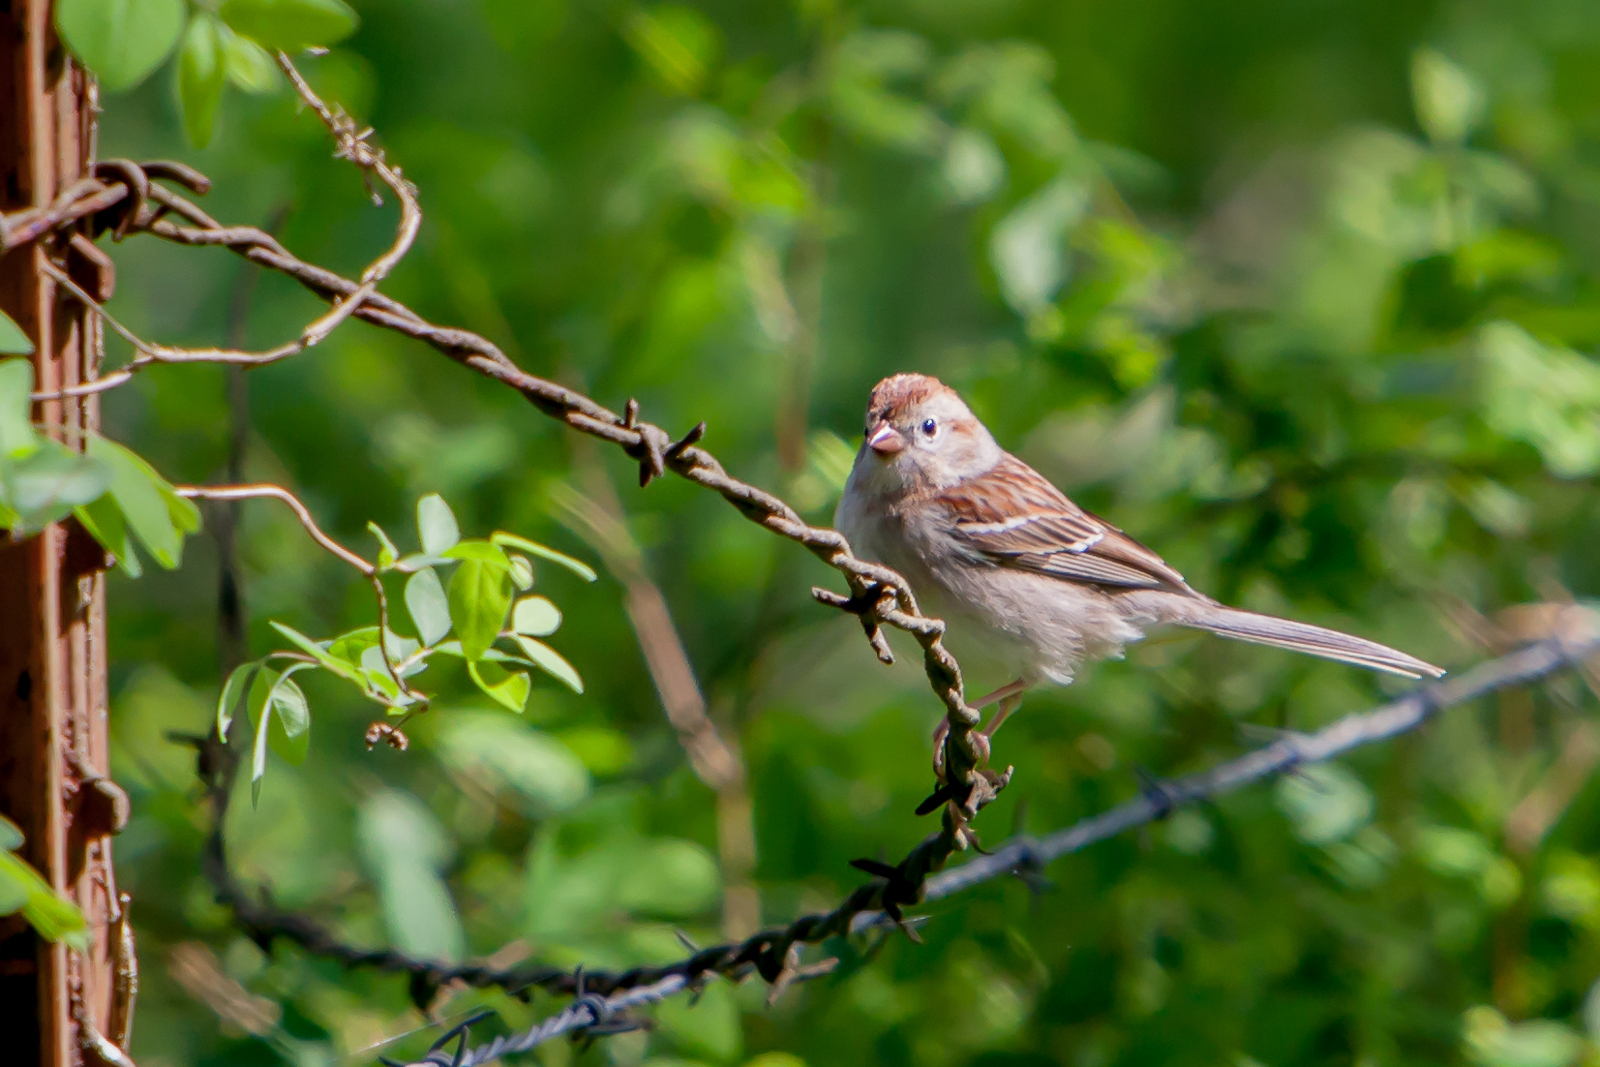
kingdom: Animalia
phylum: Chordata
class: Aves
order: Passeriformes
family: Passerellidae
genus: Spizella
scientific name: Spizella pusilla
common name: Field sparrow
